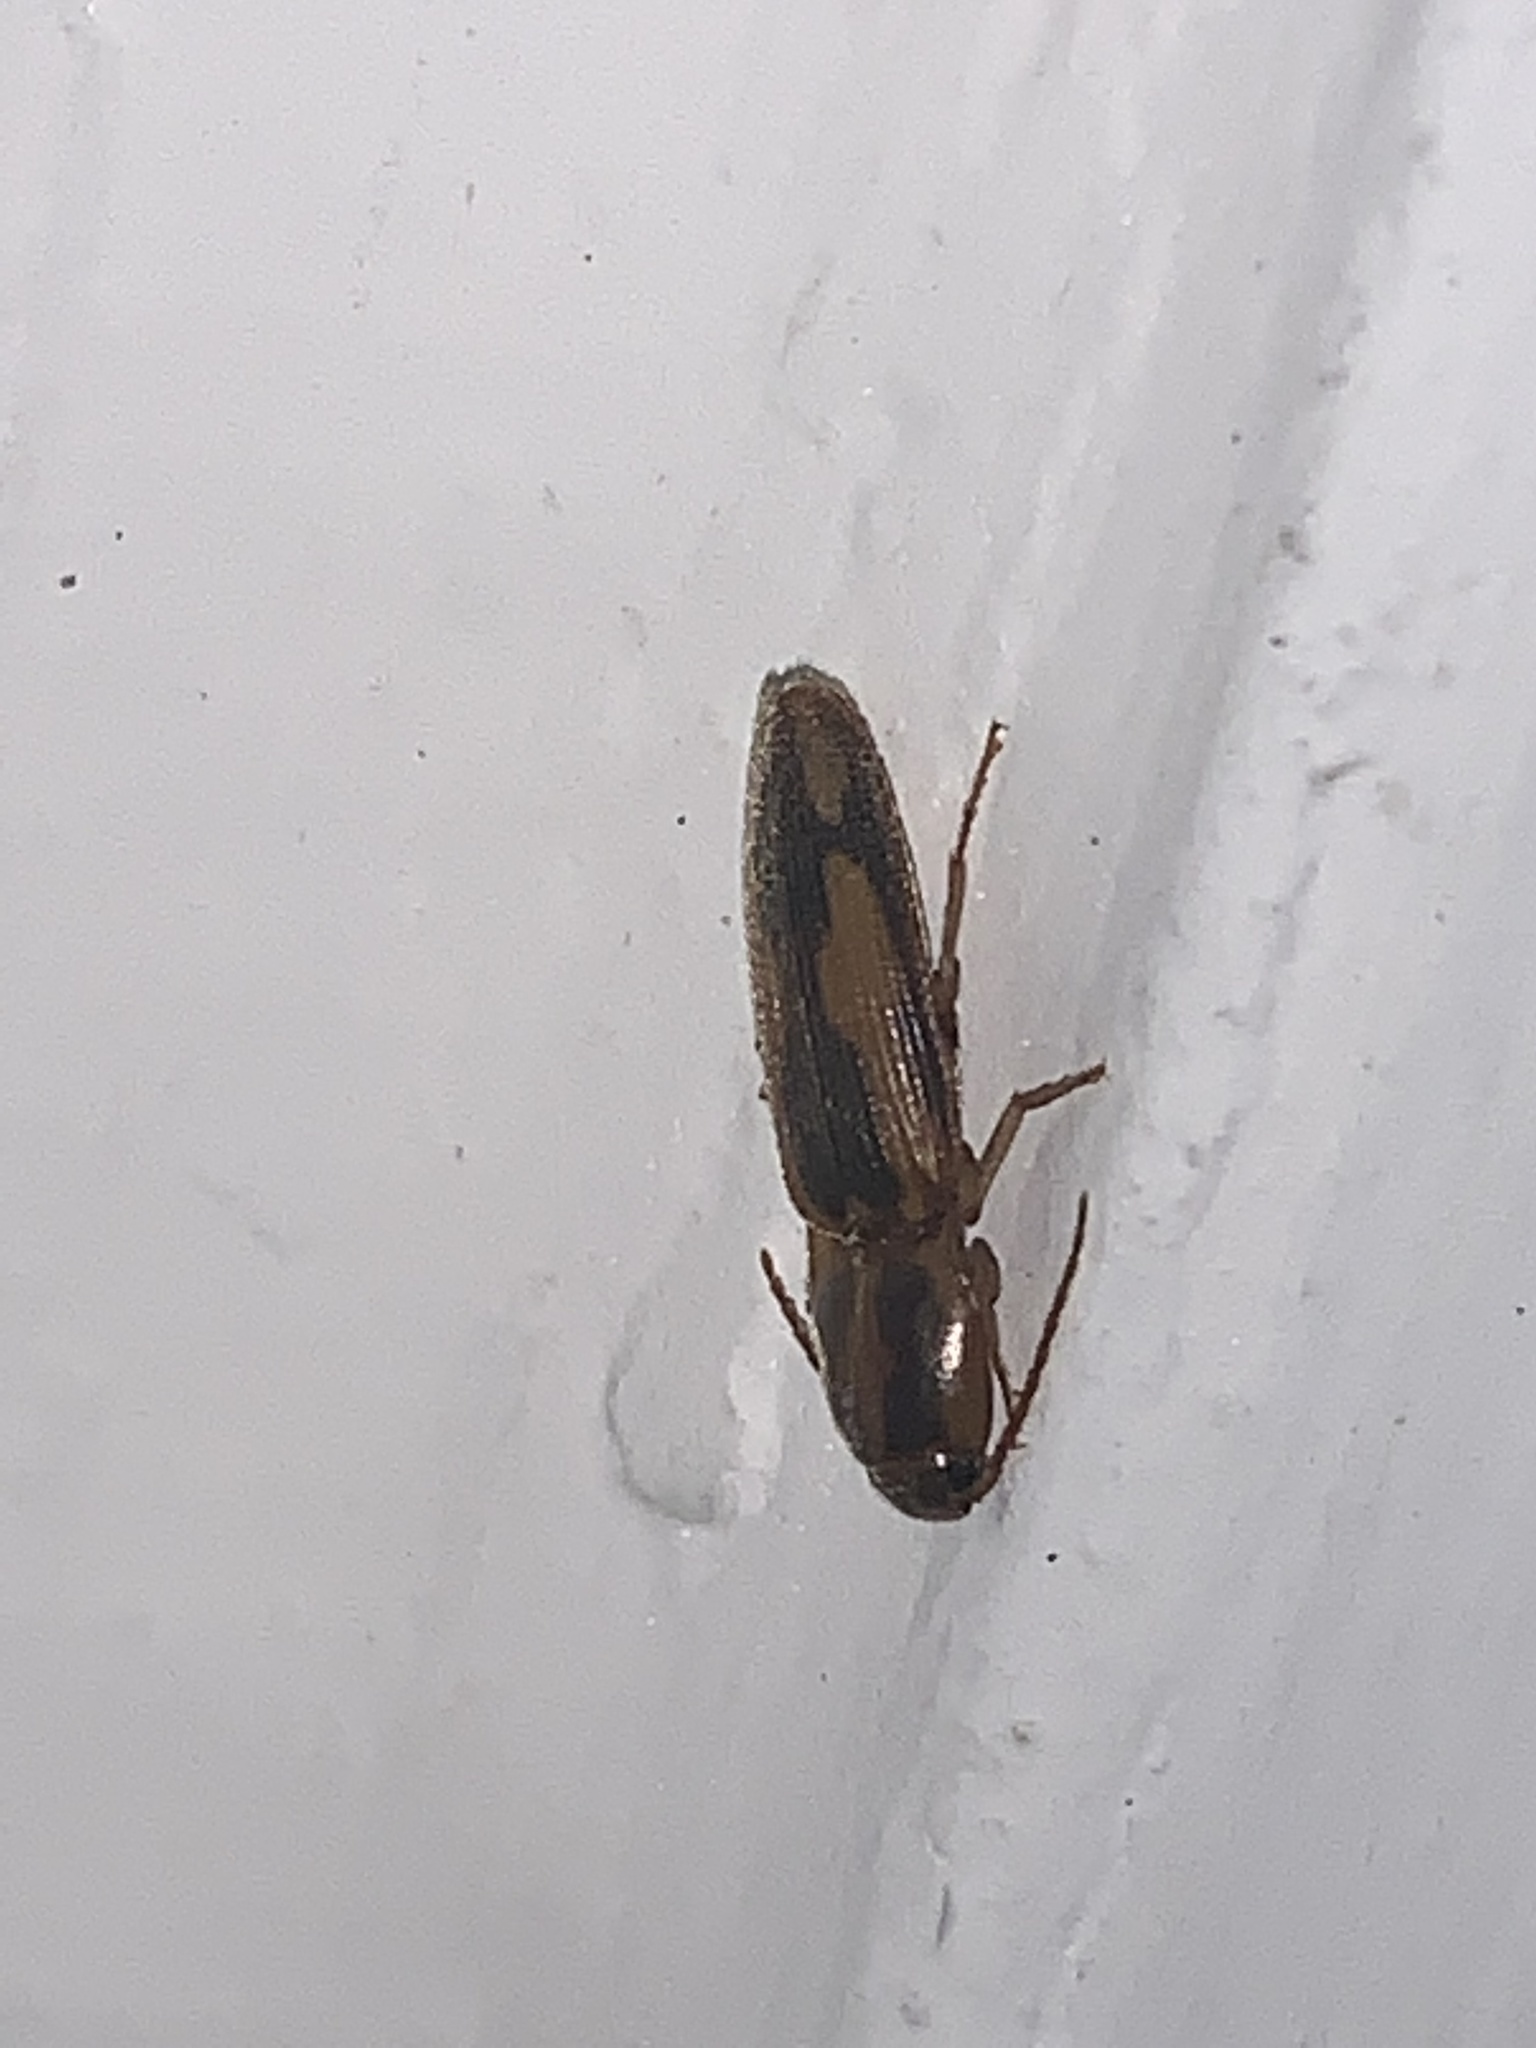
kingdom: Animalia
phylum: Arthropoda
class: Insecta
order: Coleoptera
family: Elateridae
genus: Monocrepidius
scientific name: Monocrepidius
